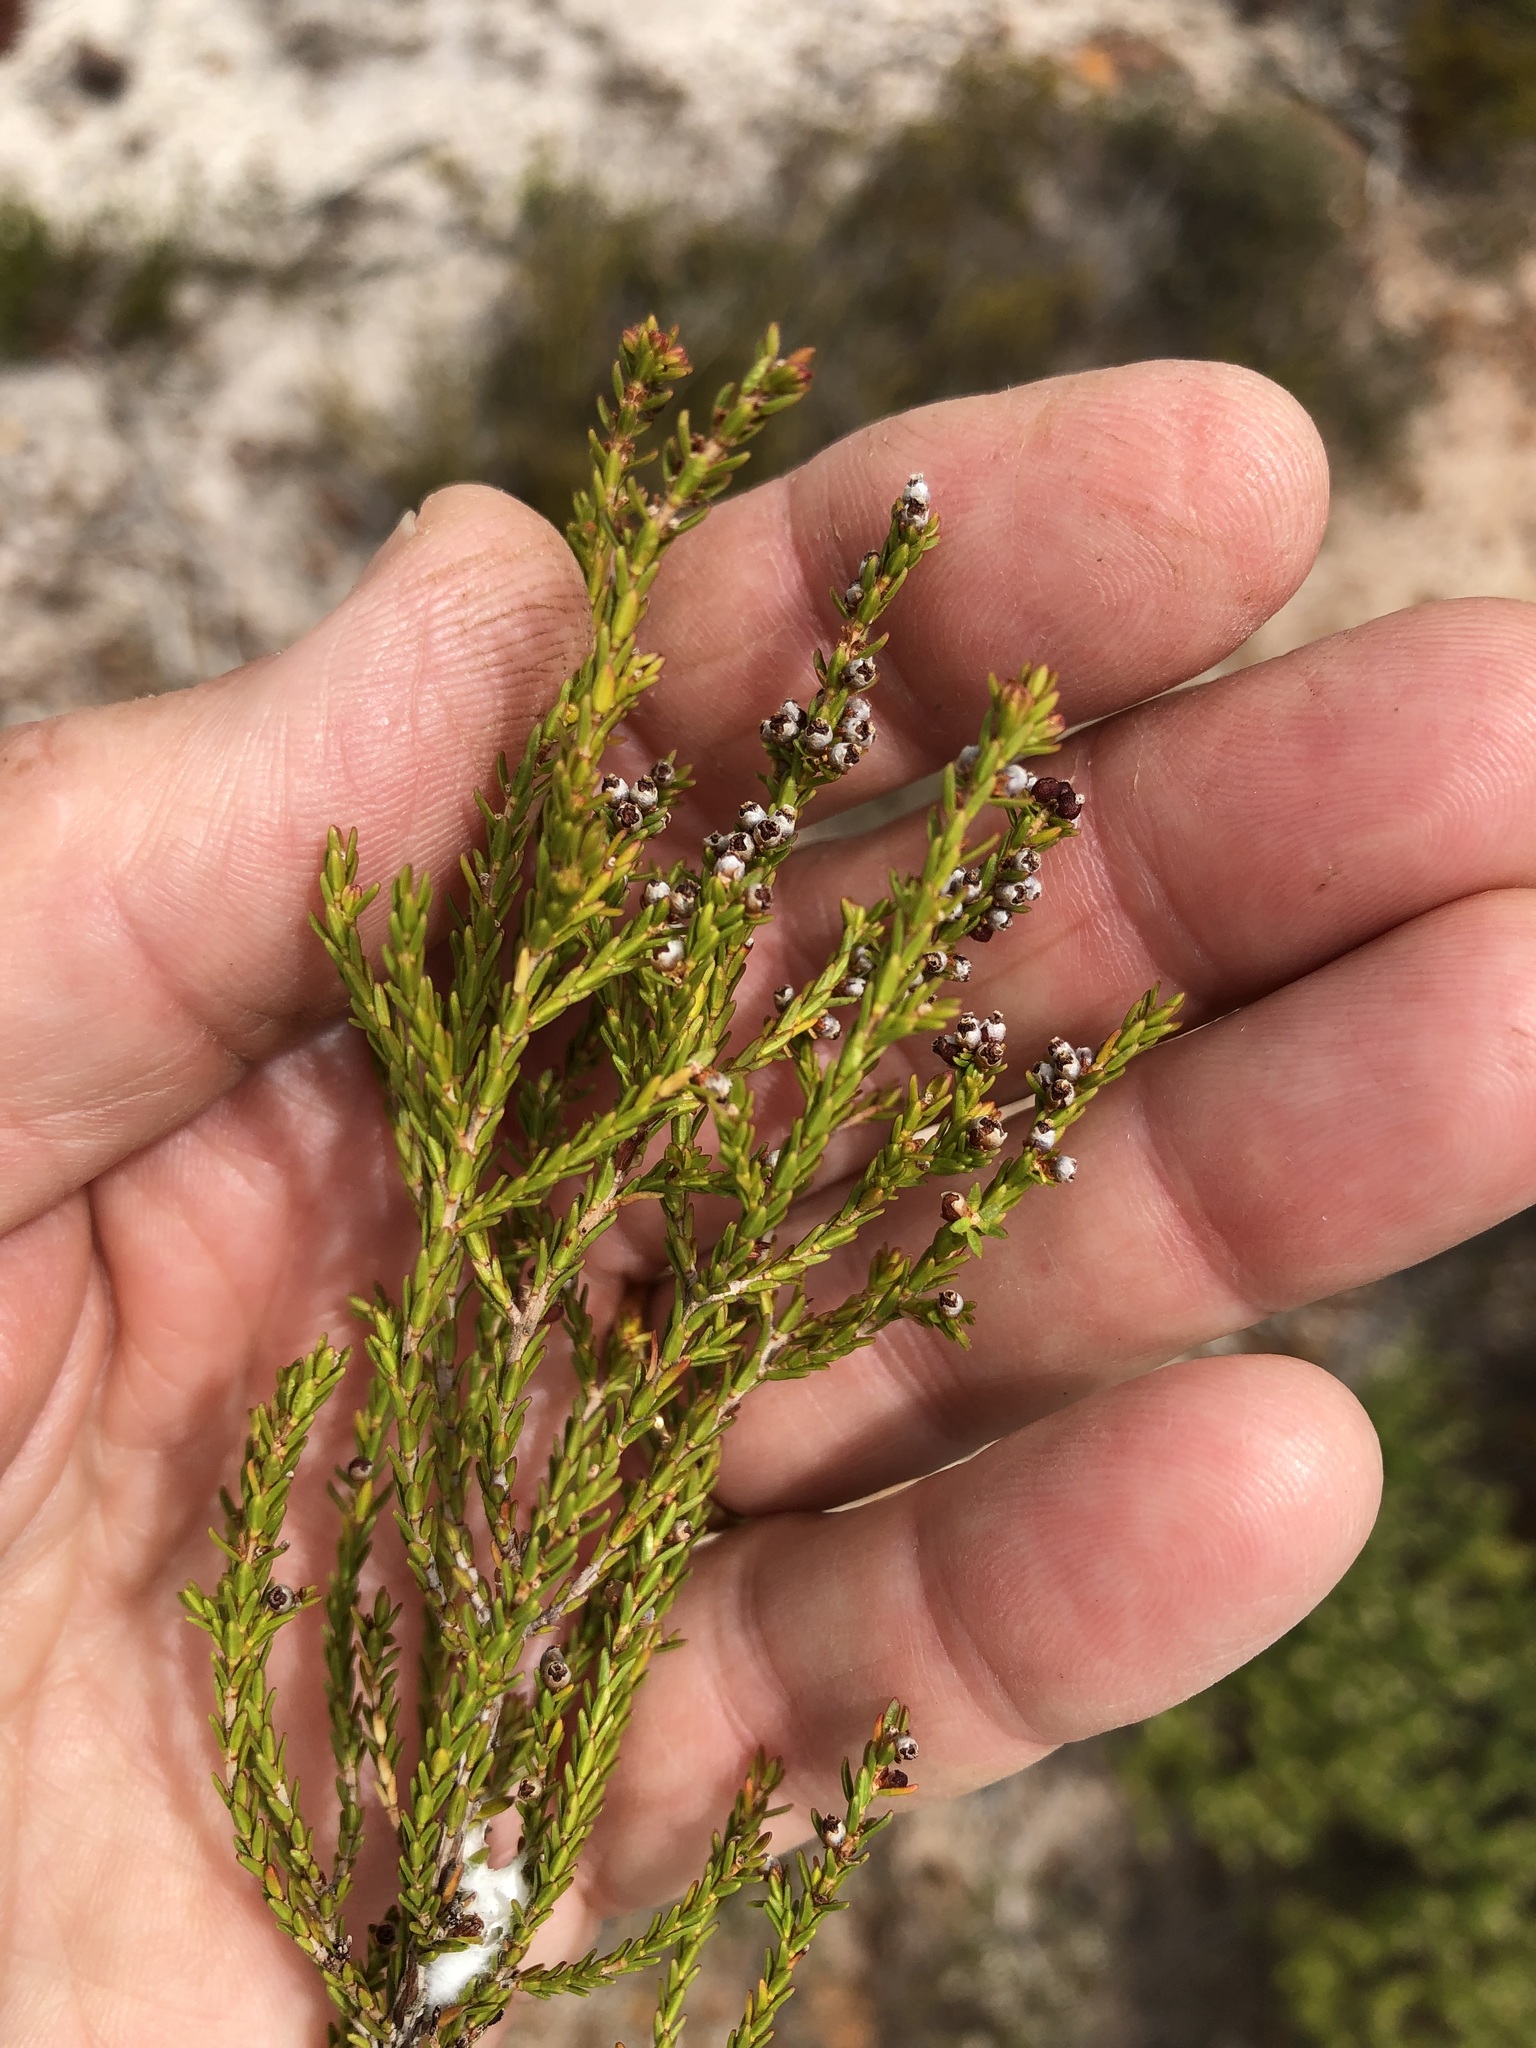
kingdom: Plantae
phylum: Tracheophyta
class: Magnoliopsida
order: Ericales
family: Ericaceae
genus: Erica
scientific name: Erica axillaris
